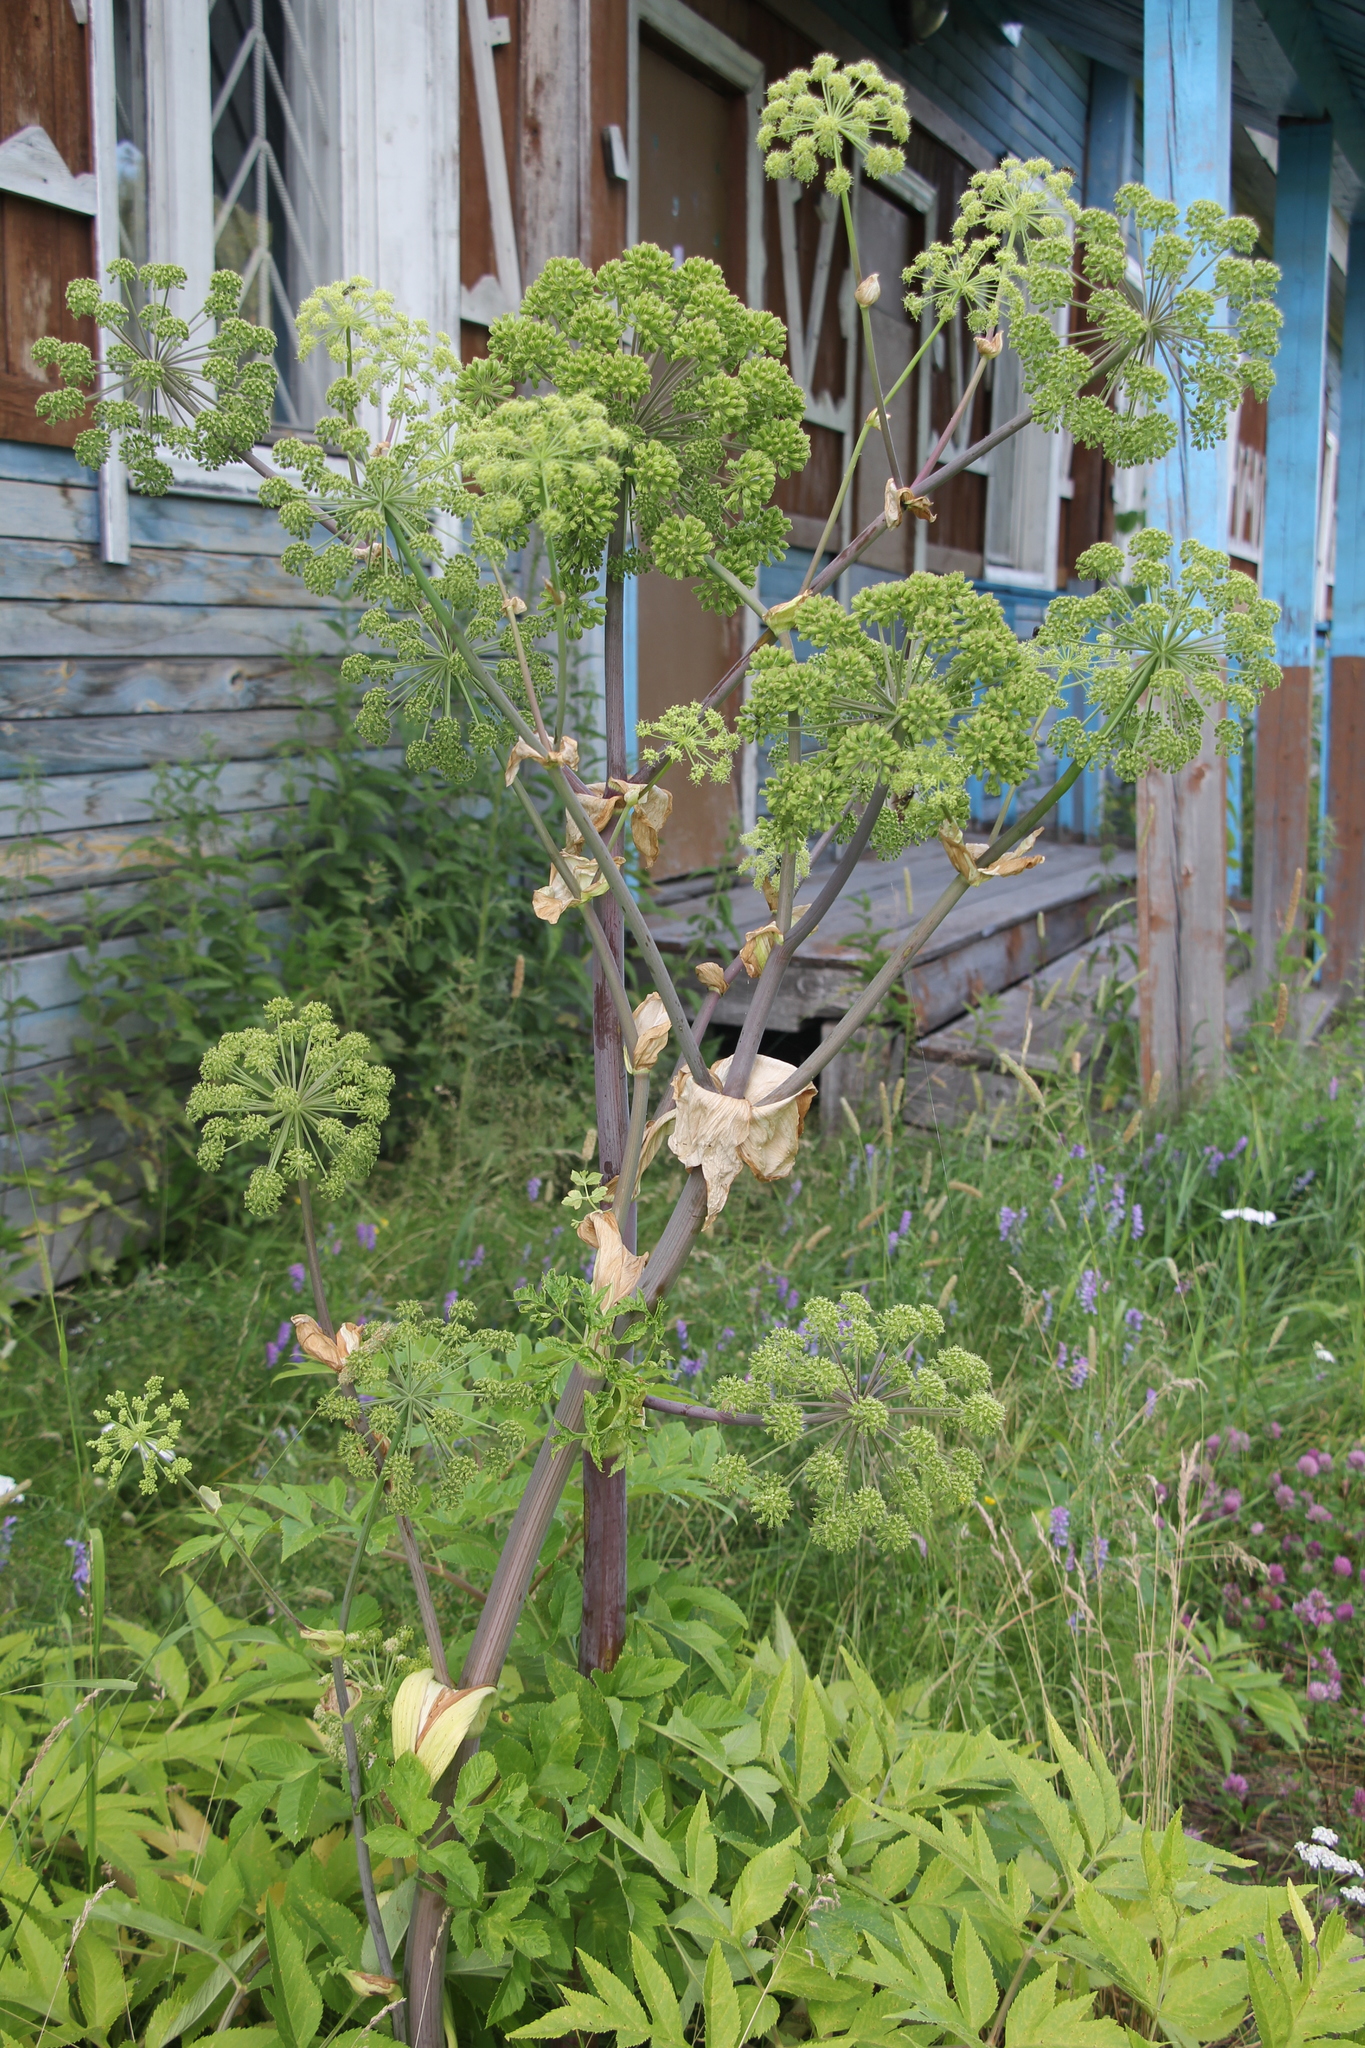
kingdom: Plantae
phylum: Tracheophyta
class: Magnoliopsida
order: Apiales
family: Apiaceae
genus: Angelica
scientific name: Angelica decurrens
